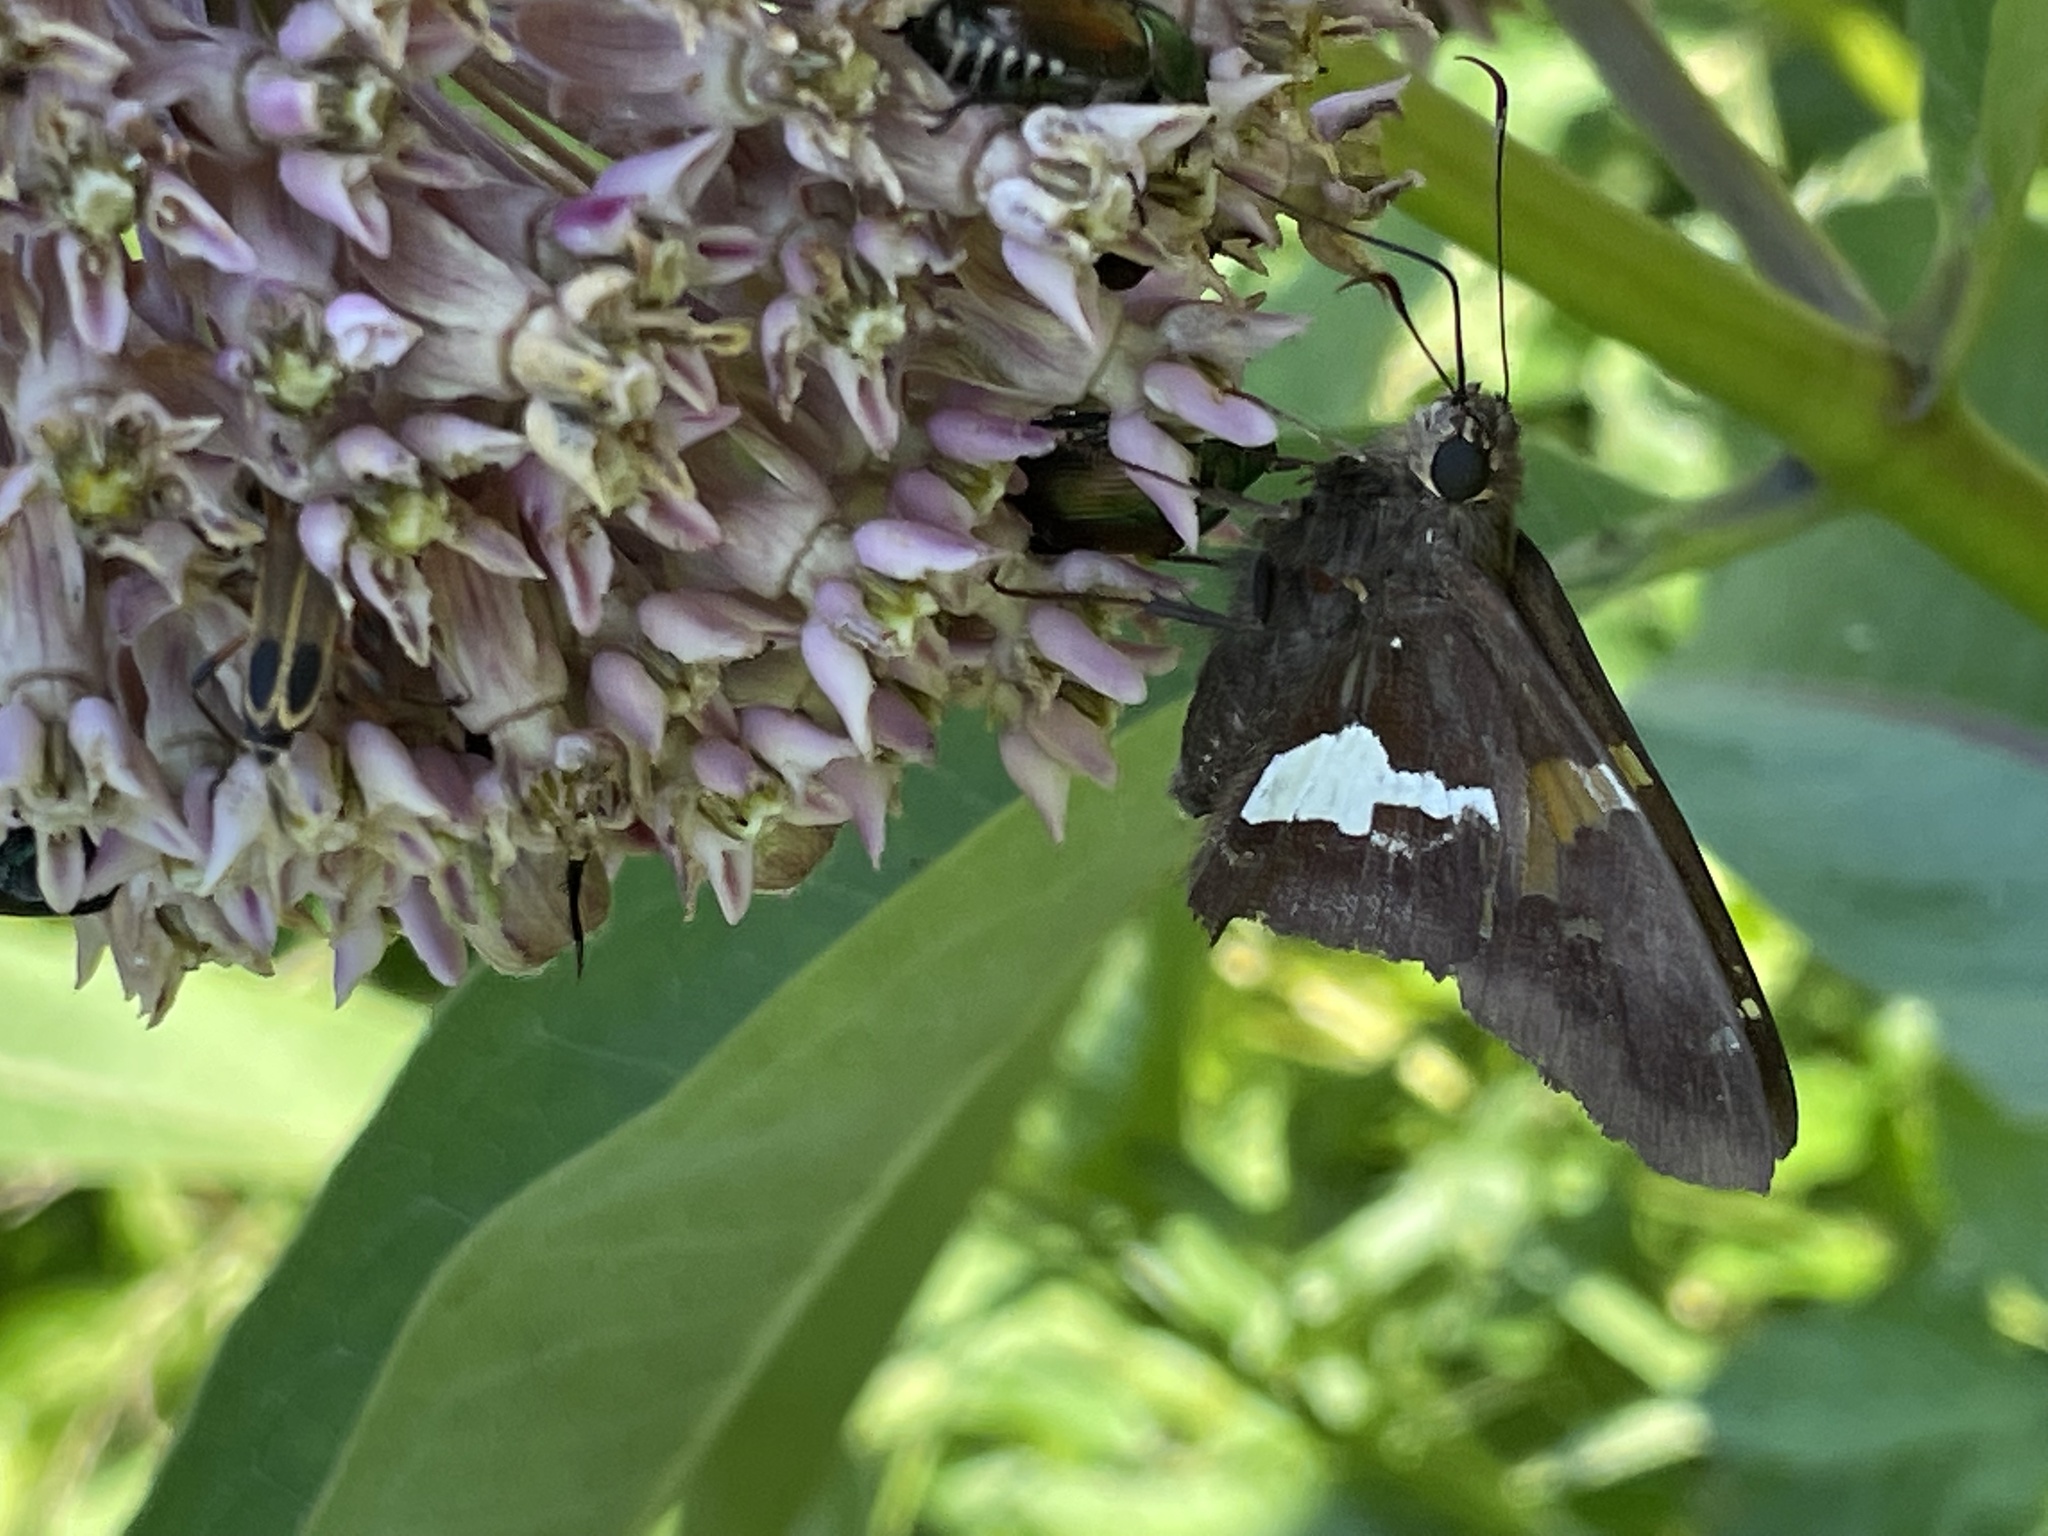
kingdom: Animalia
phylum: Arthropoda
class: Insecta
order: Lepidoptera
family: Hesperiidae
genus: Epargyreus
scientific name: Epargyreus clarus
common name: Silver-spotted skipper
